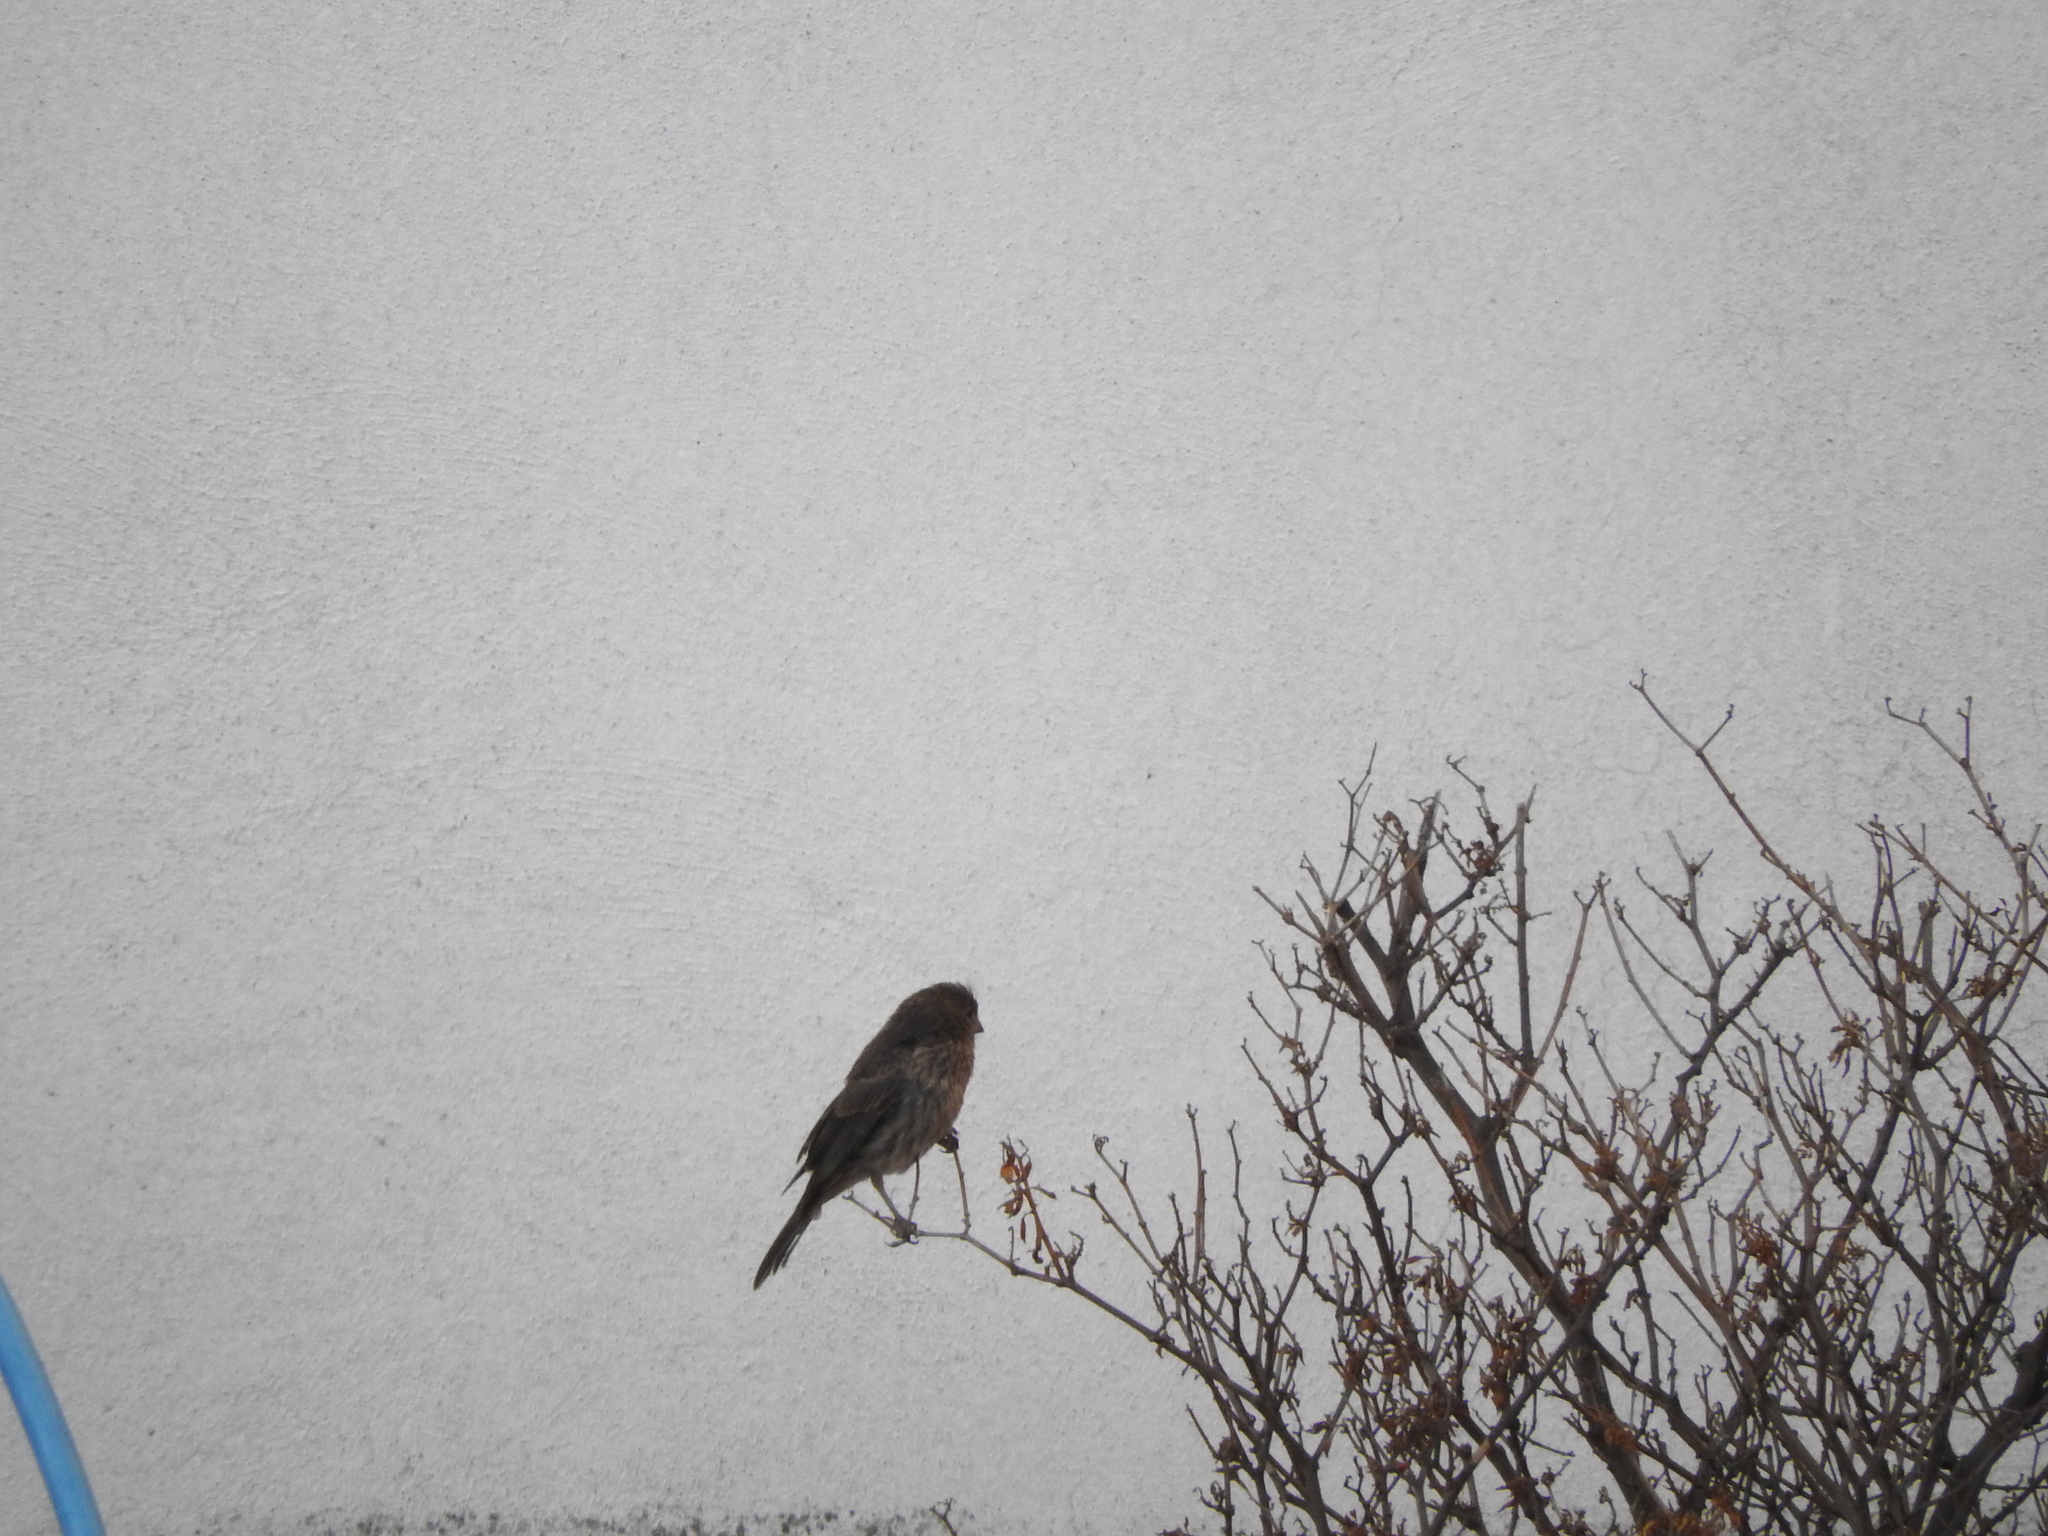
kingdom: Animalia
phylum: Chordata
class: Aves
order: Passeriformes
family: Fringillidae
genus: Haemorhous
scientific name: Haemorhous mexicanus
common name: House finch
